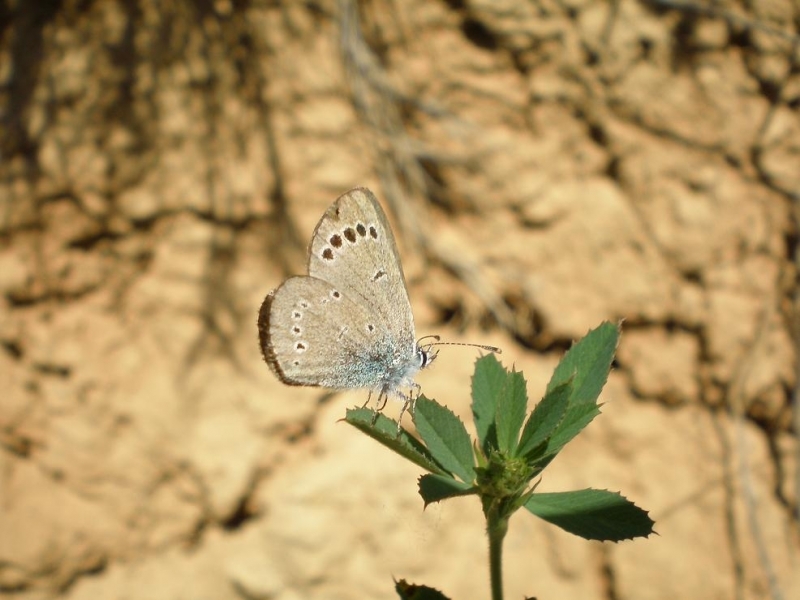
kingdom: Animalia
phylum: Arthropoda
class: Insecta
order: Lepidoptera
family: Lycaenidae
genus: Glaucopsyche
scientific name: Glaucopsyche alexis
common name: Green-underside blue
